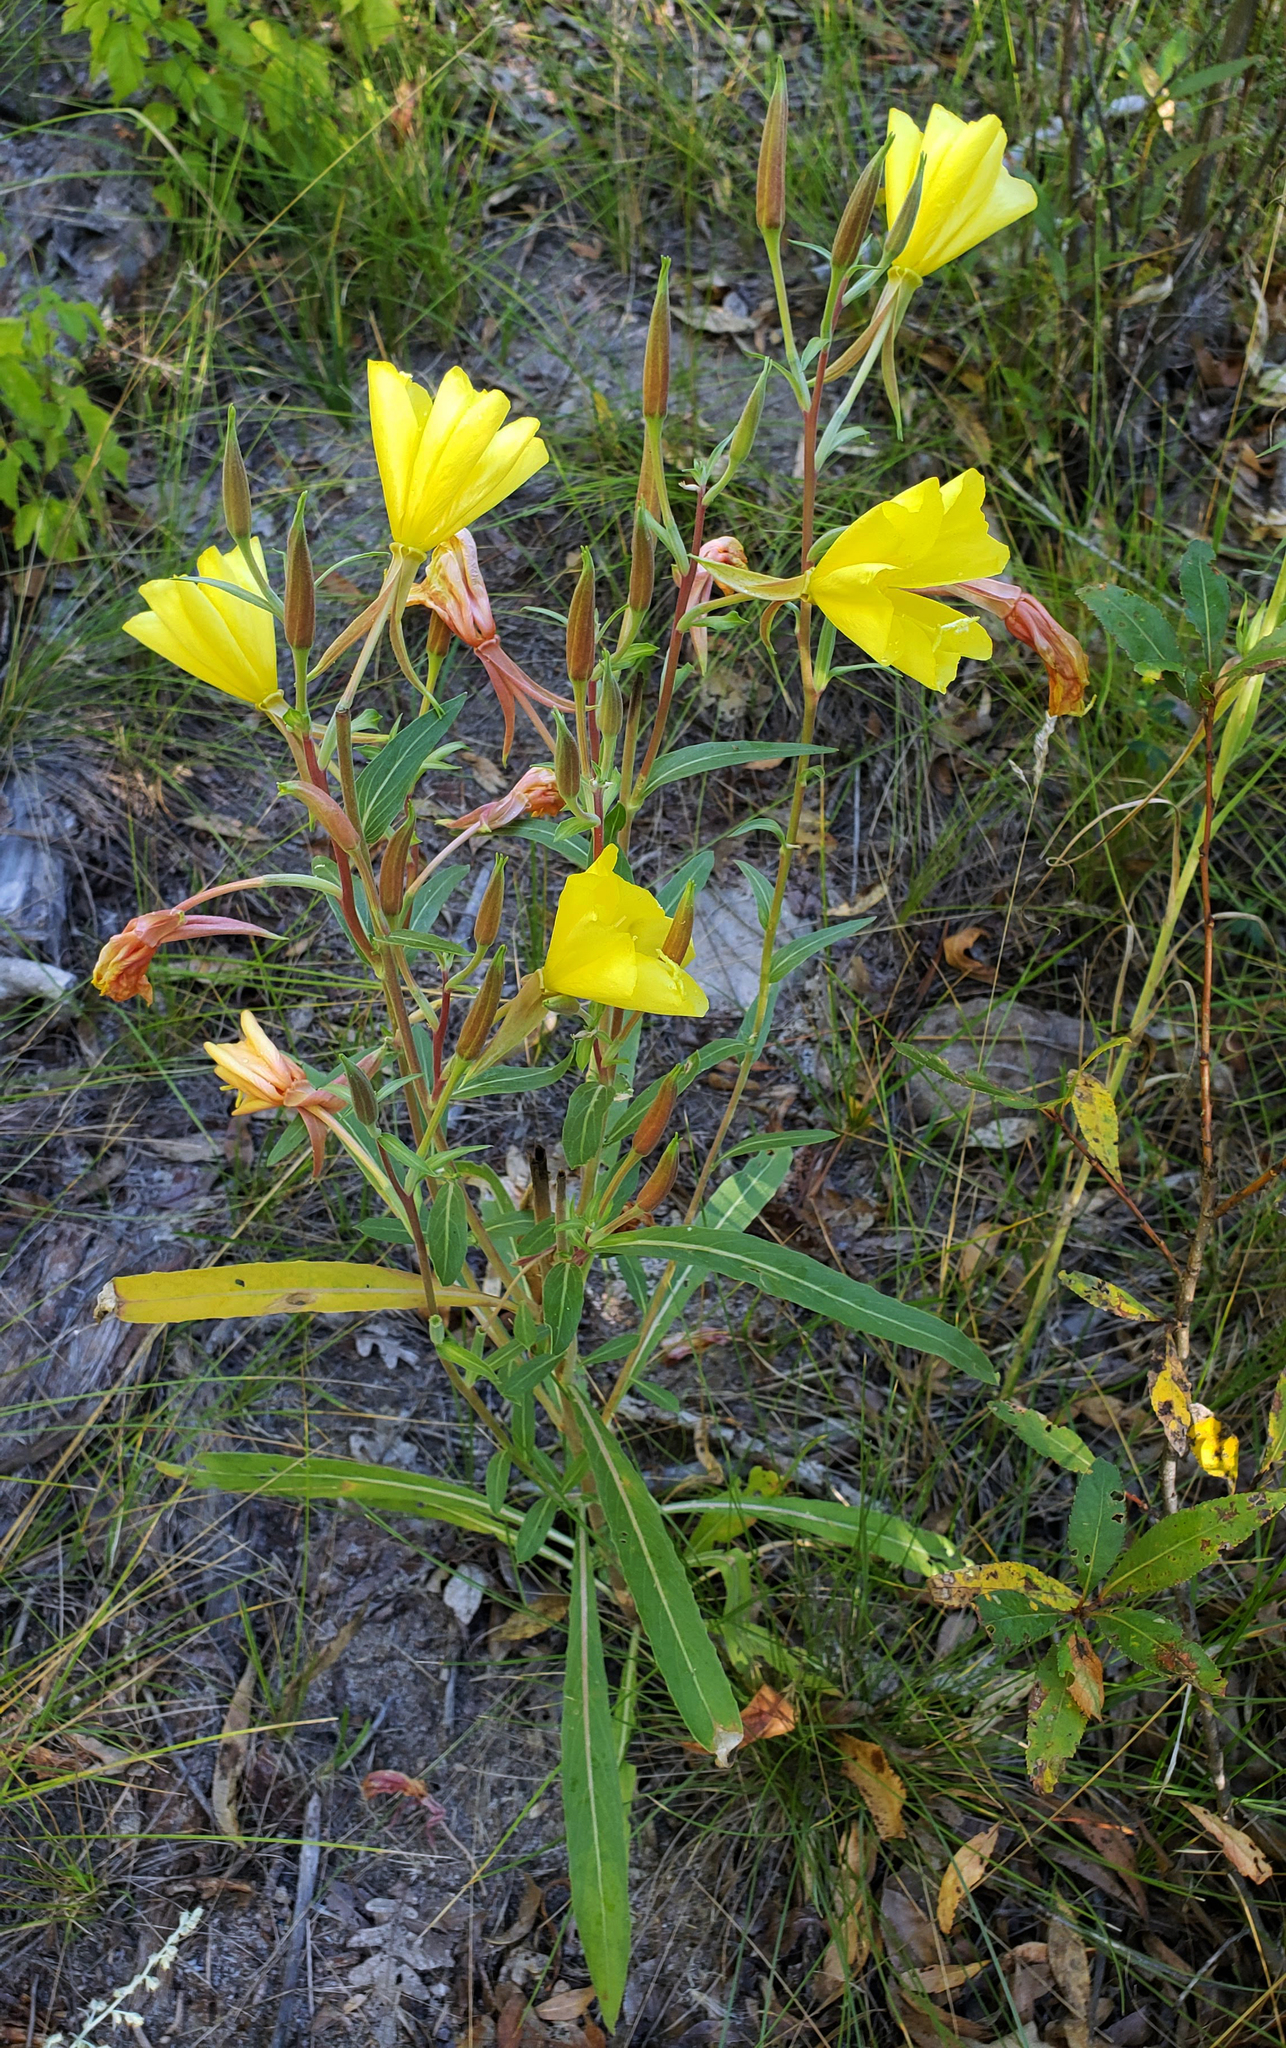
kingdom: Plantae
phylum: Tracheophyta
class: Magnoliopsida
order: Myrtales
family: Onagraceae
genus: Oenothera
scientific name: Oenothera elata
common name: Hooker's evening-primrose
